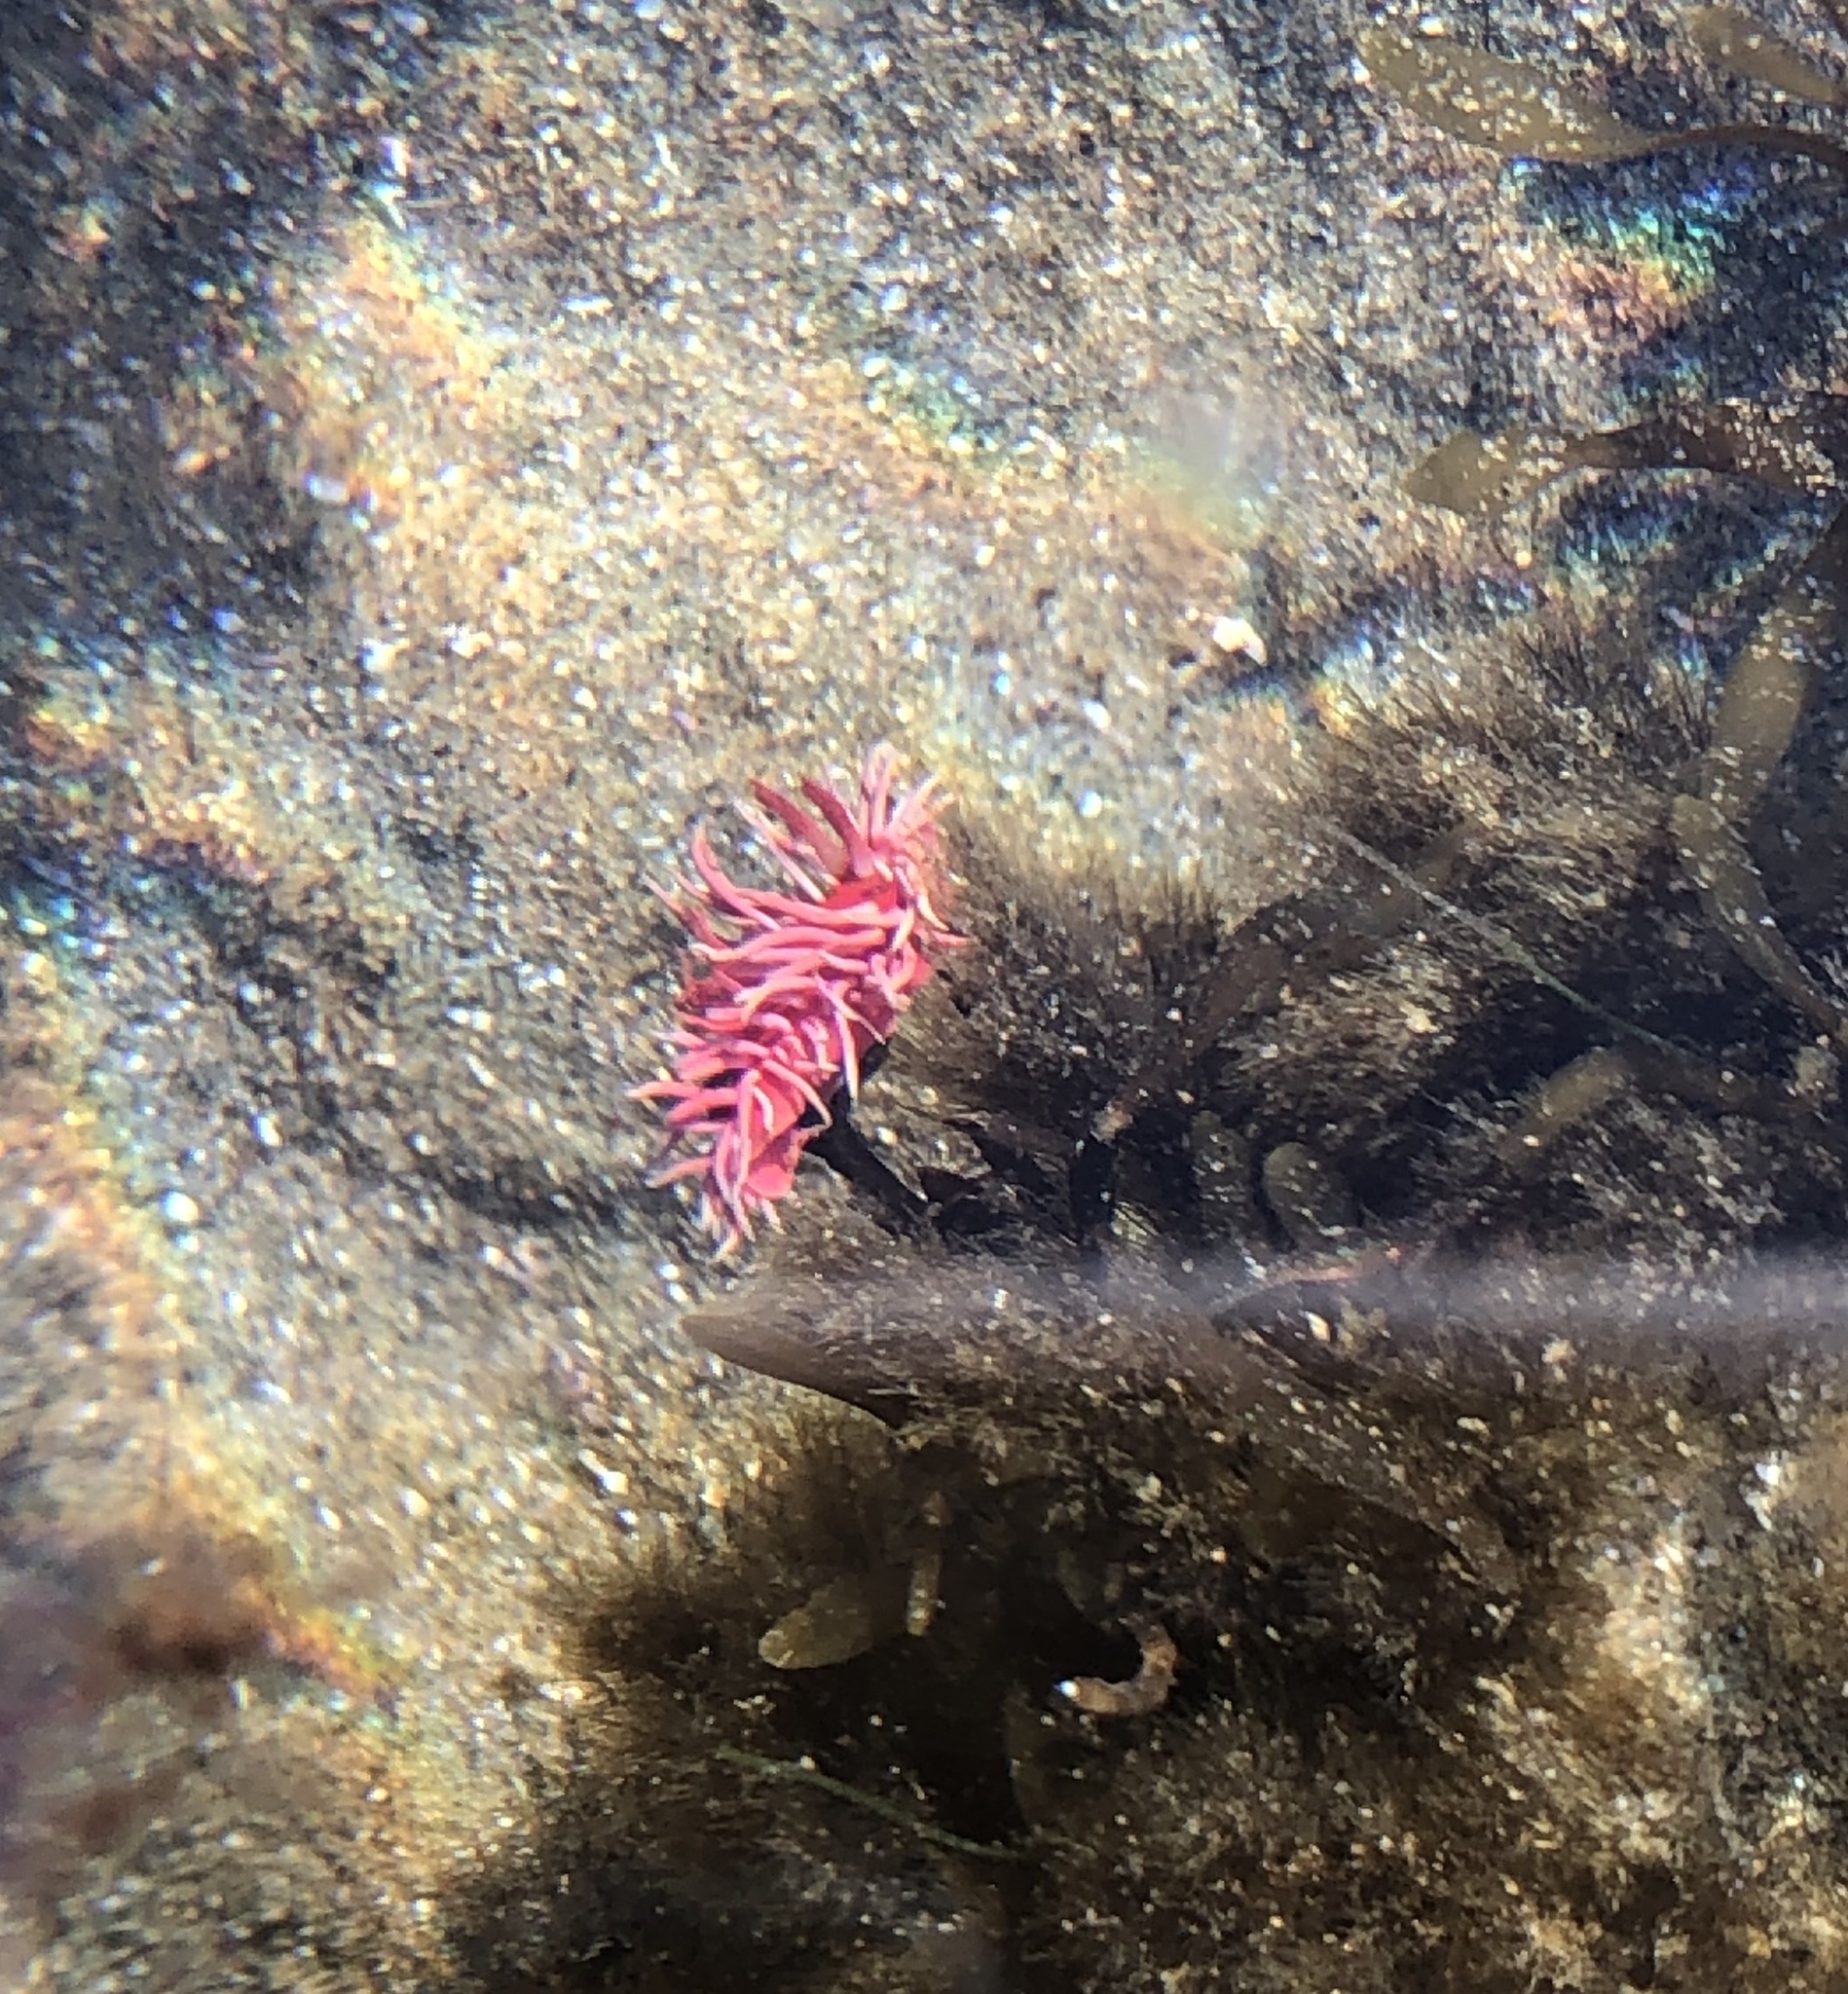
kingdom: Animalia
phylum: Mollusca
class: Gastropoda
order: Nudibranchia
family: Goniodorididae
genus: Okenia
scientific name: Okenia
